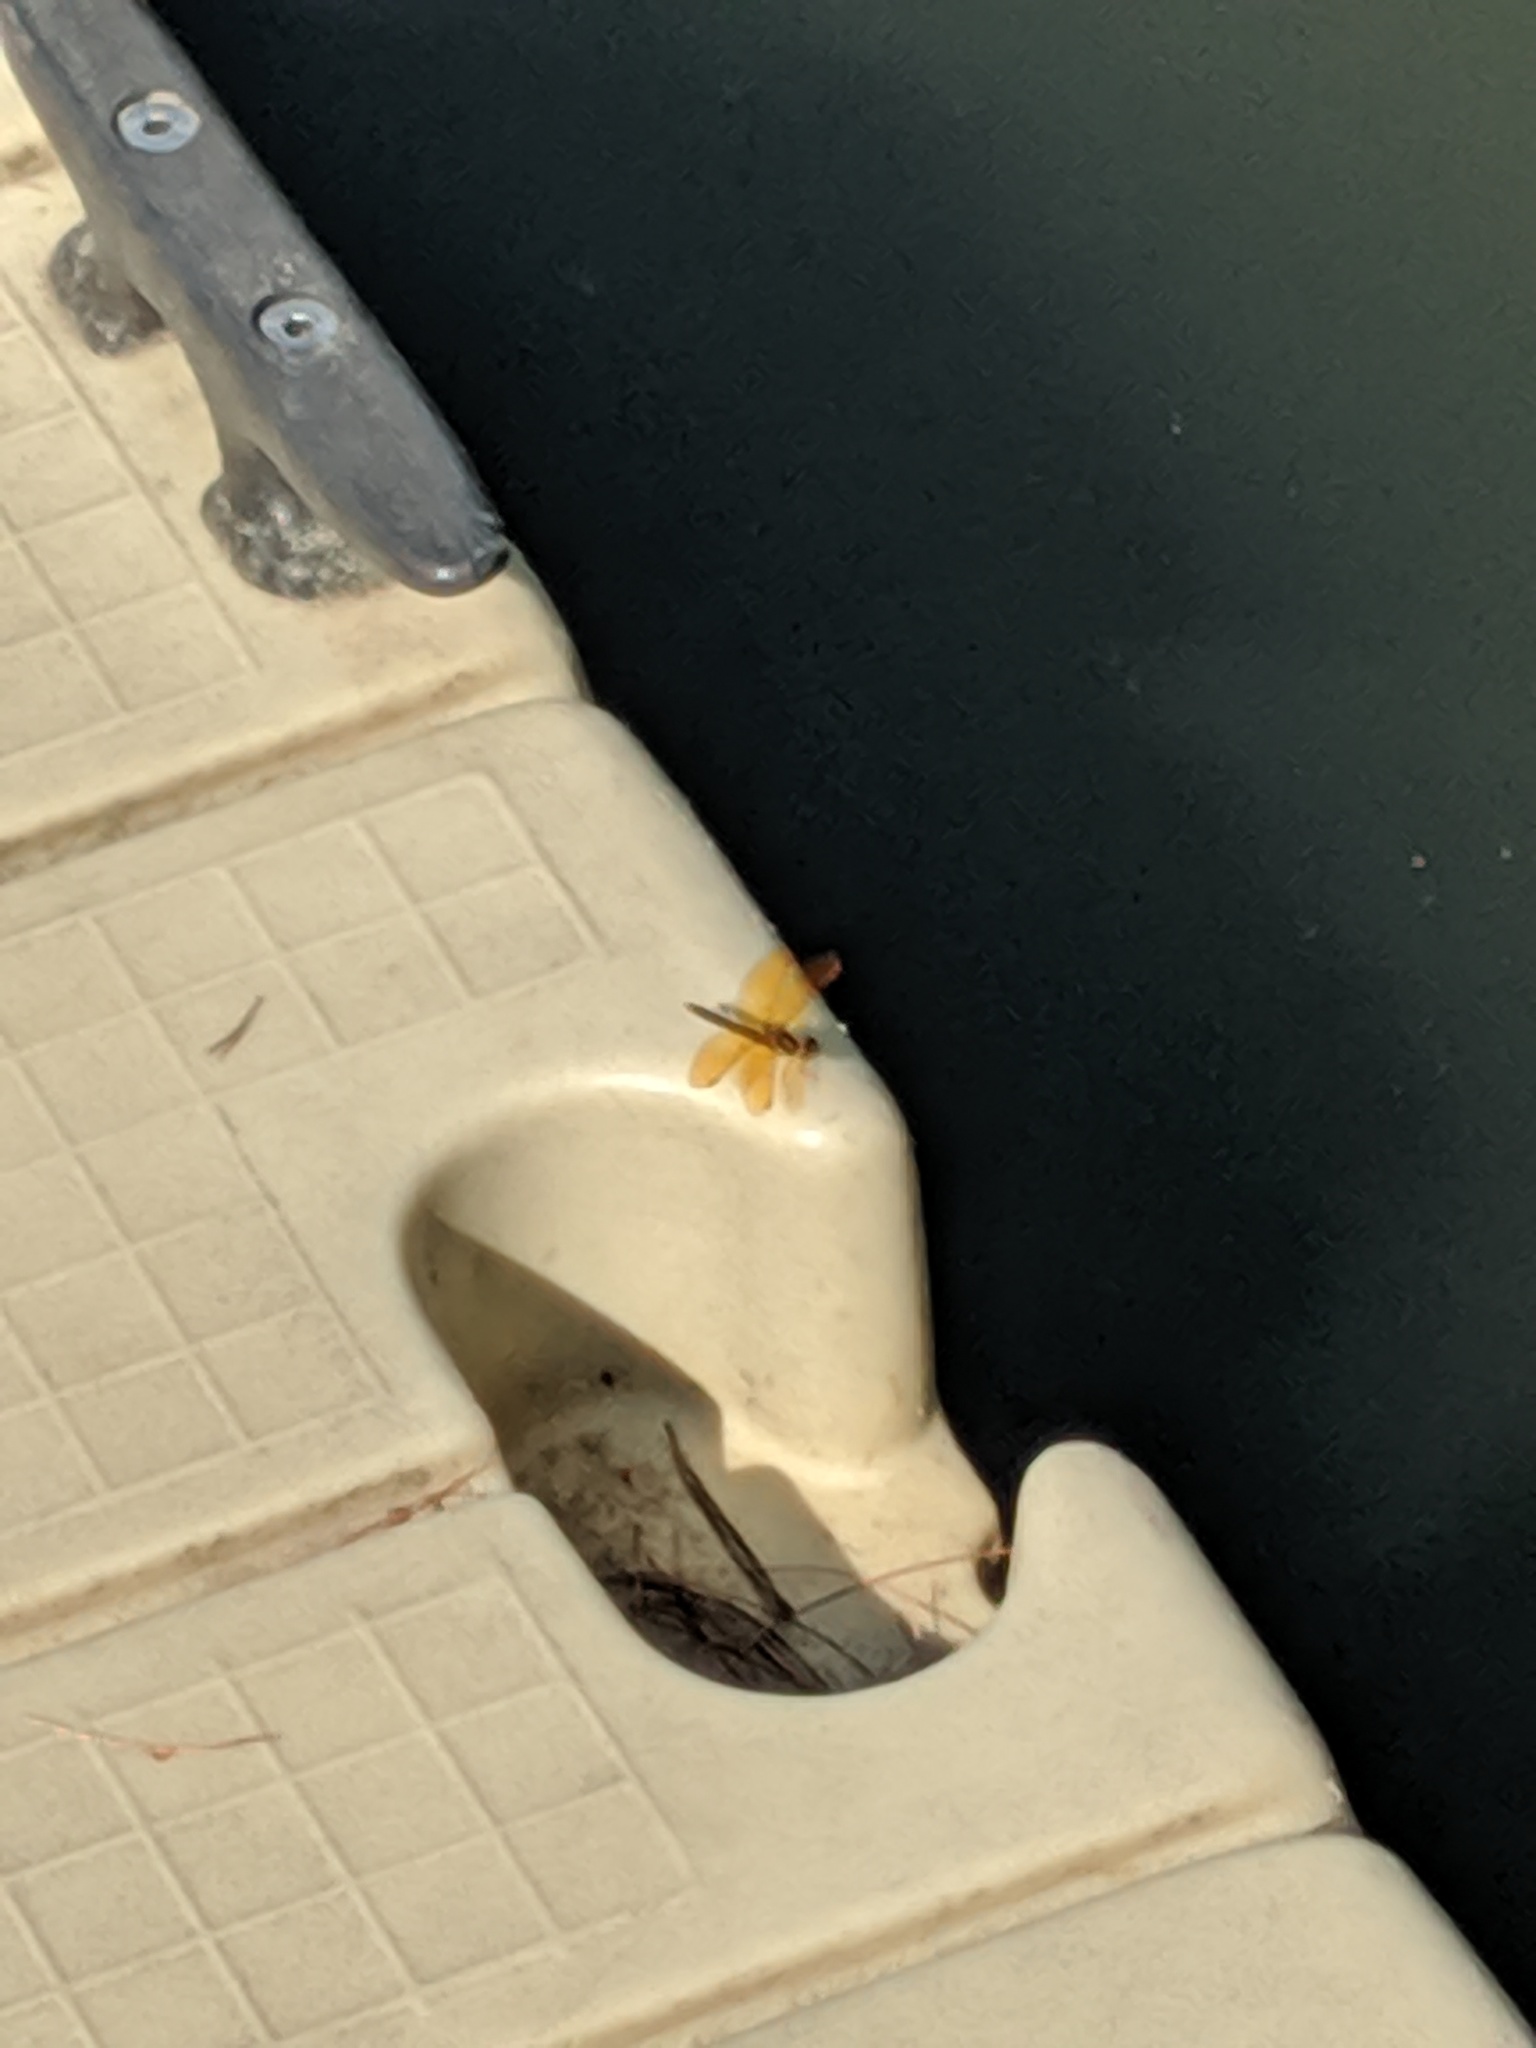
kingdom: Animalia
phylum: Arthropoda
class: Insecta
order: Odonata
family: Libellulidae
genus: Perithemis
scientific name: Perithemis tenera
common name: Eastern amberwing
